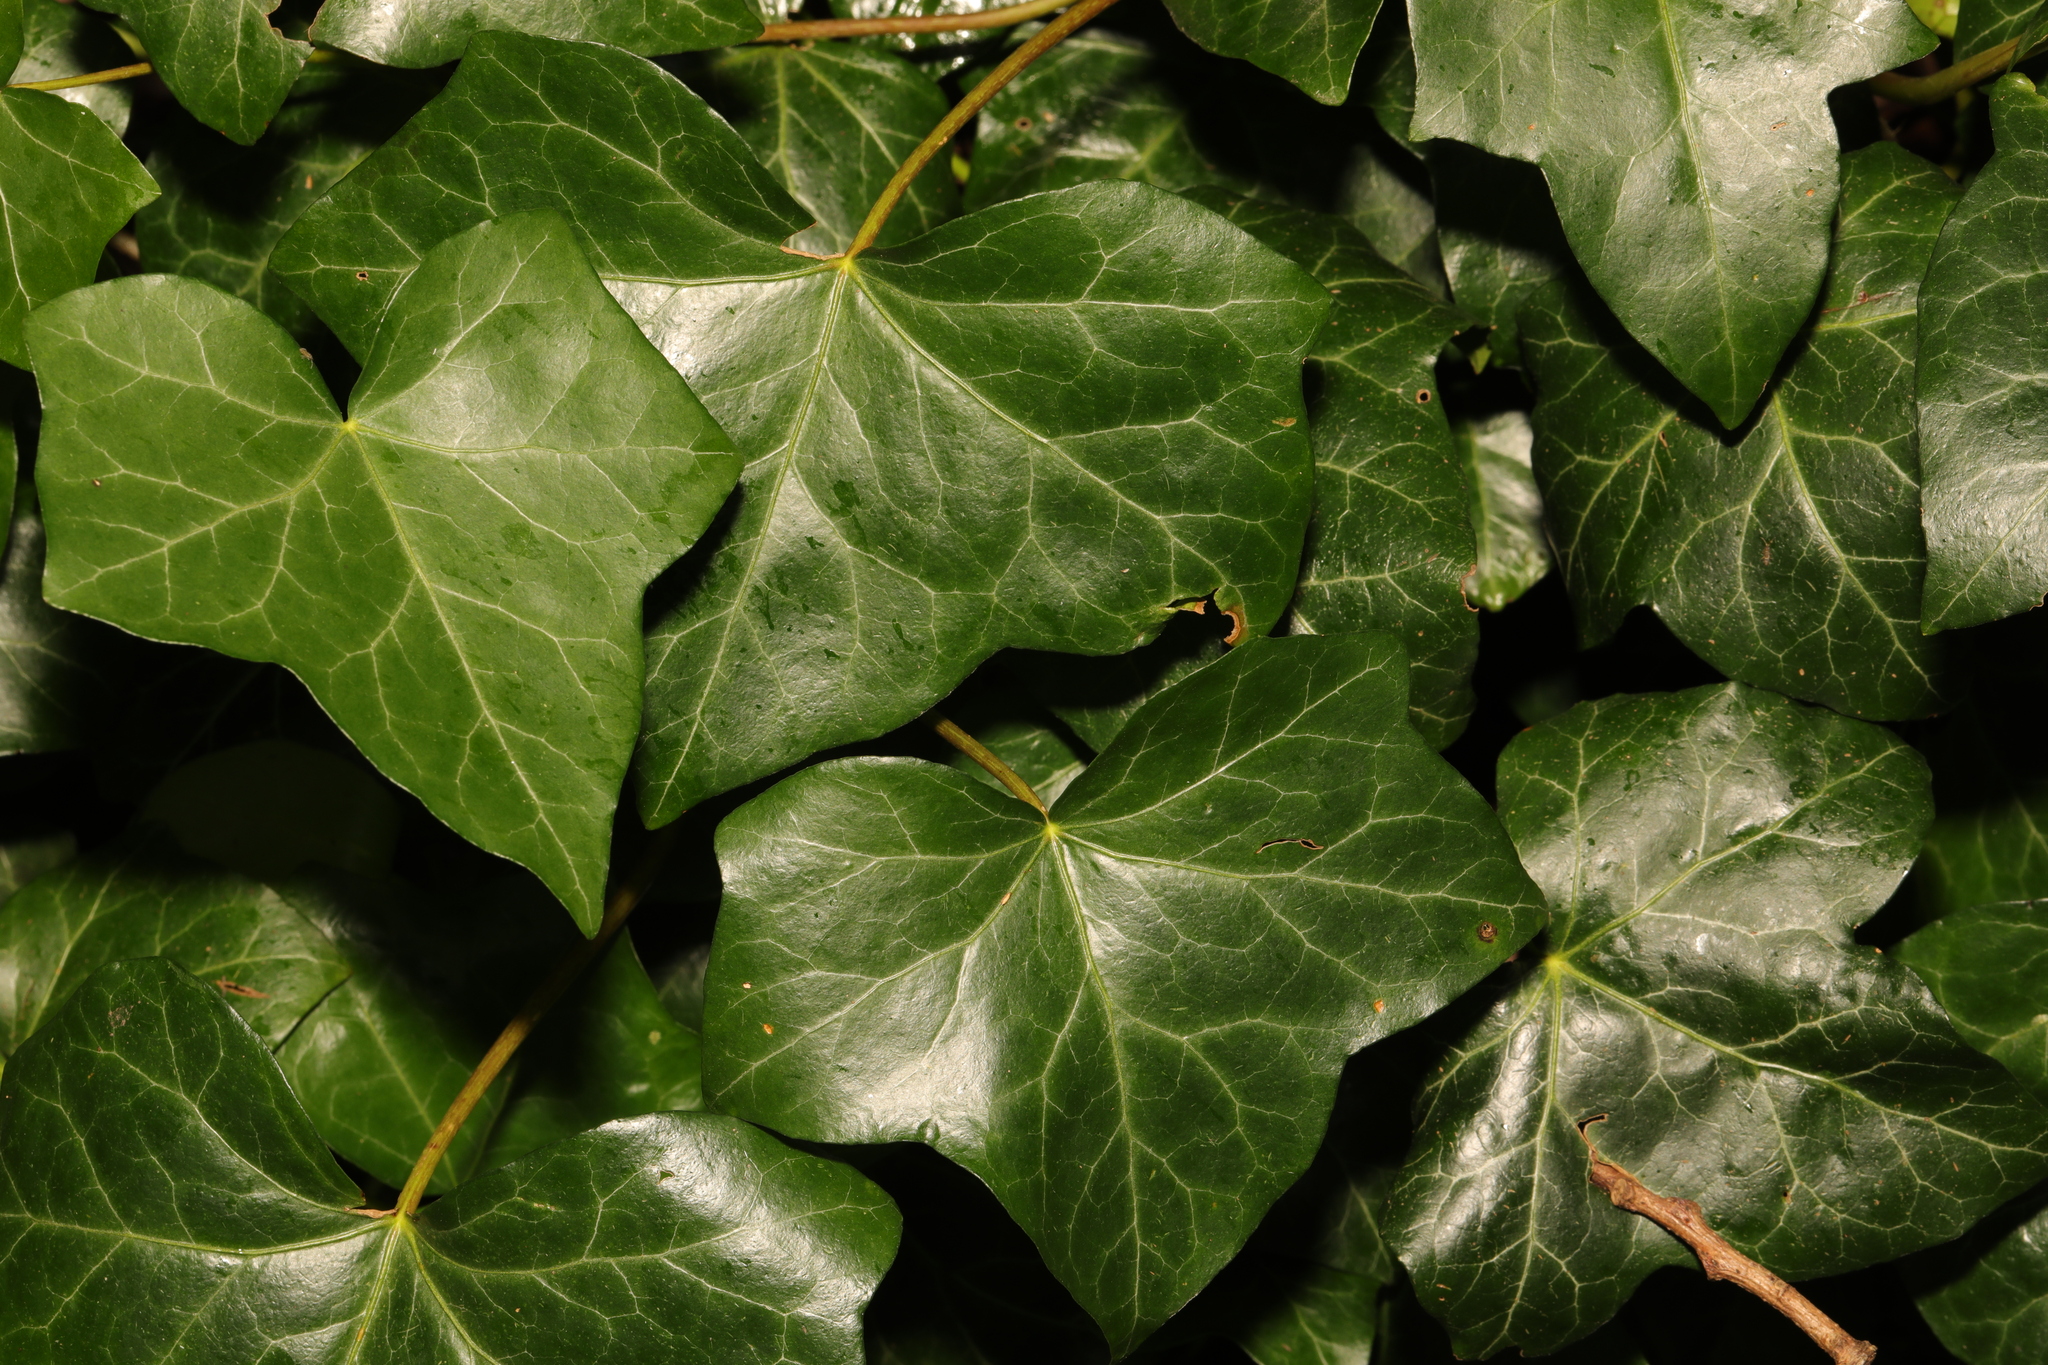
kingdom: Plantae
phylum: Tracheophyta
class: Magnoliopsida
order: Apiales
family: Araliaceae
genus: Hedera
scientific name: Hedera helix
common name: Ivy
